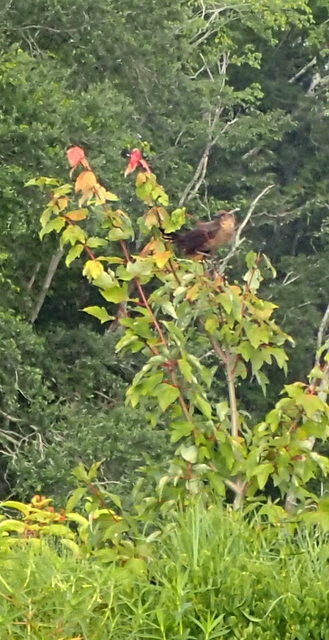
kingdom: Animalia
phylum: Chordata
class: Aves
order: Passeriformes
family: Icteridae
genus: Quiscalus
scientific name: Quiscalus major
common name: Boat-tailed grackle
